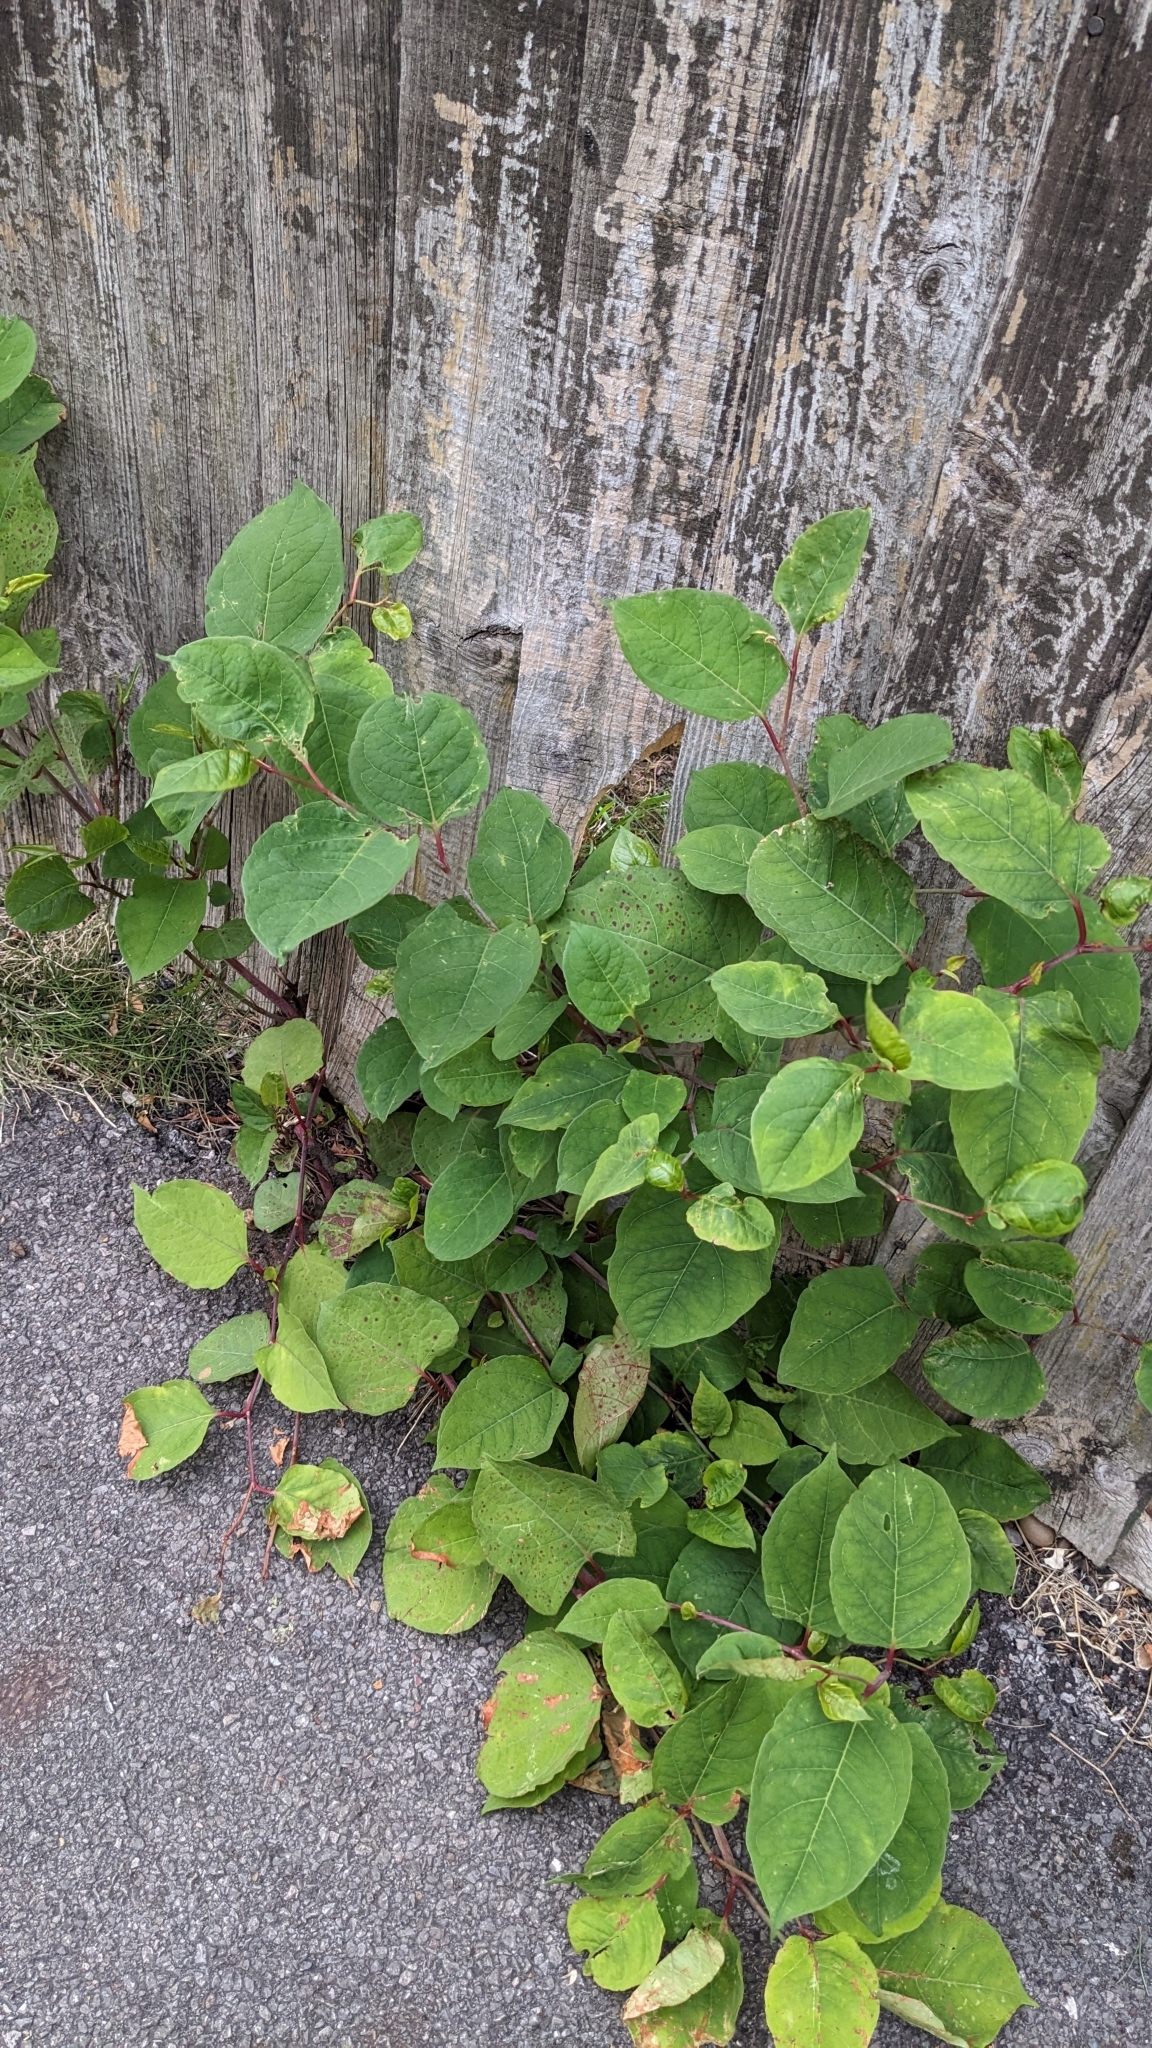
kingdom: Plantae
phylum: Tracheophyta
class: Magnoliopsida
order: Caryophyllales
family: Polygonaceae
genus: Reynoutria
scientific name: Reynoutria japonica
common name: Japanese knotweed
